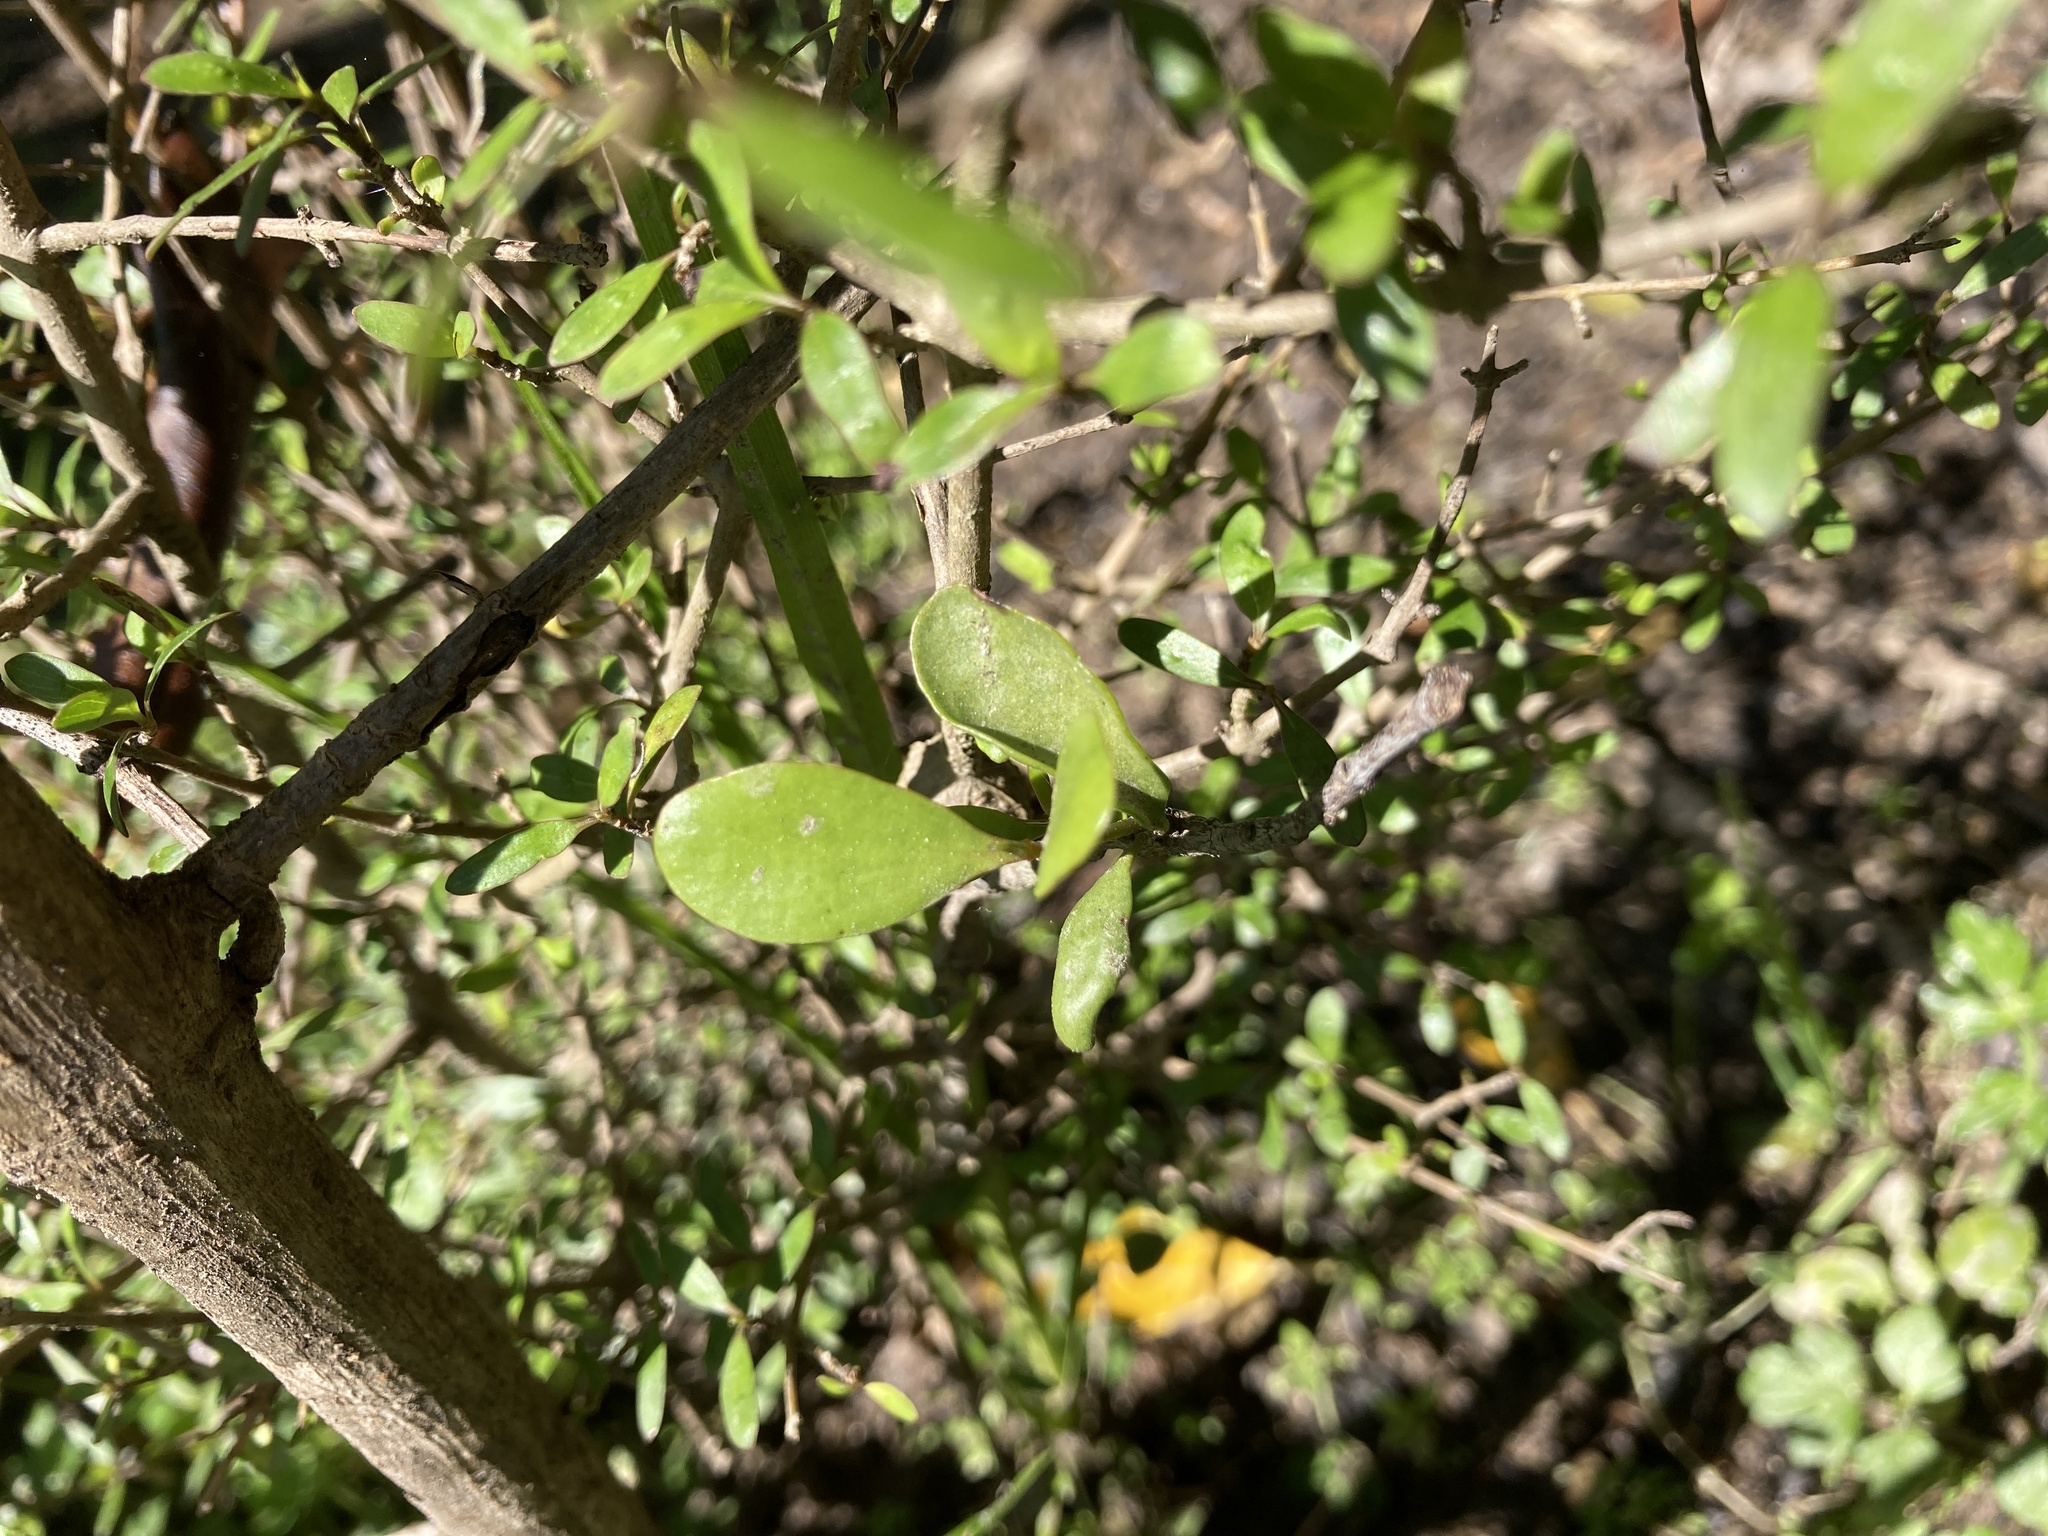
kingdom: Plantae
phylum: Tracheophyta
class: Magnoliopsida
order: Santalales
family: Loranthaceae
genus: Ileostylus
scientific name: Ileostylus micranthus
